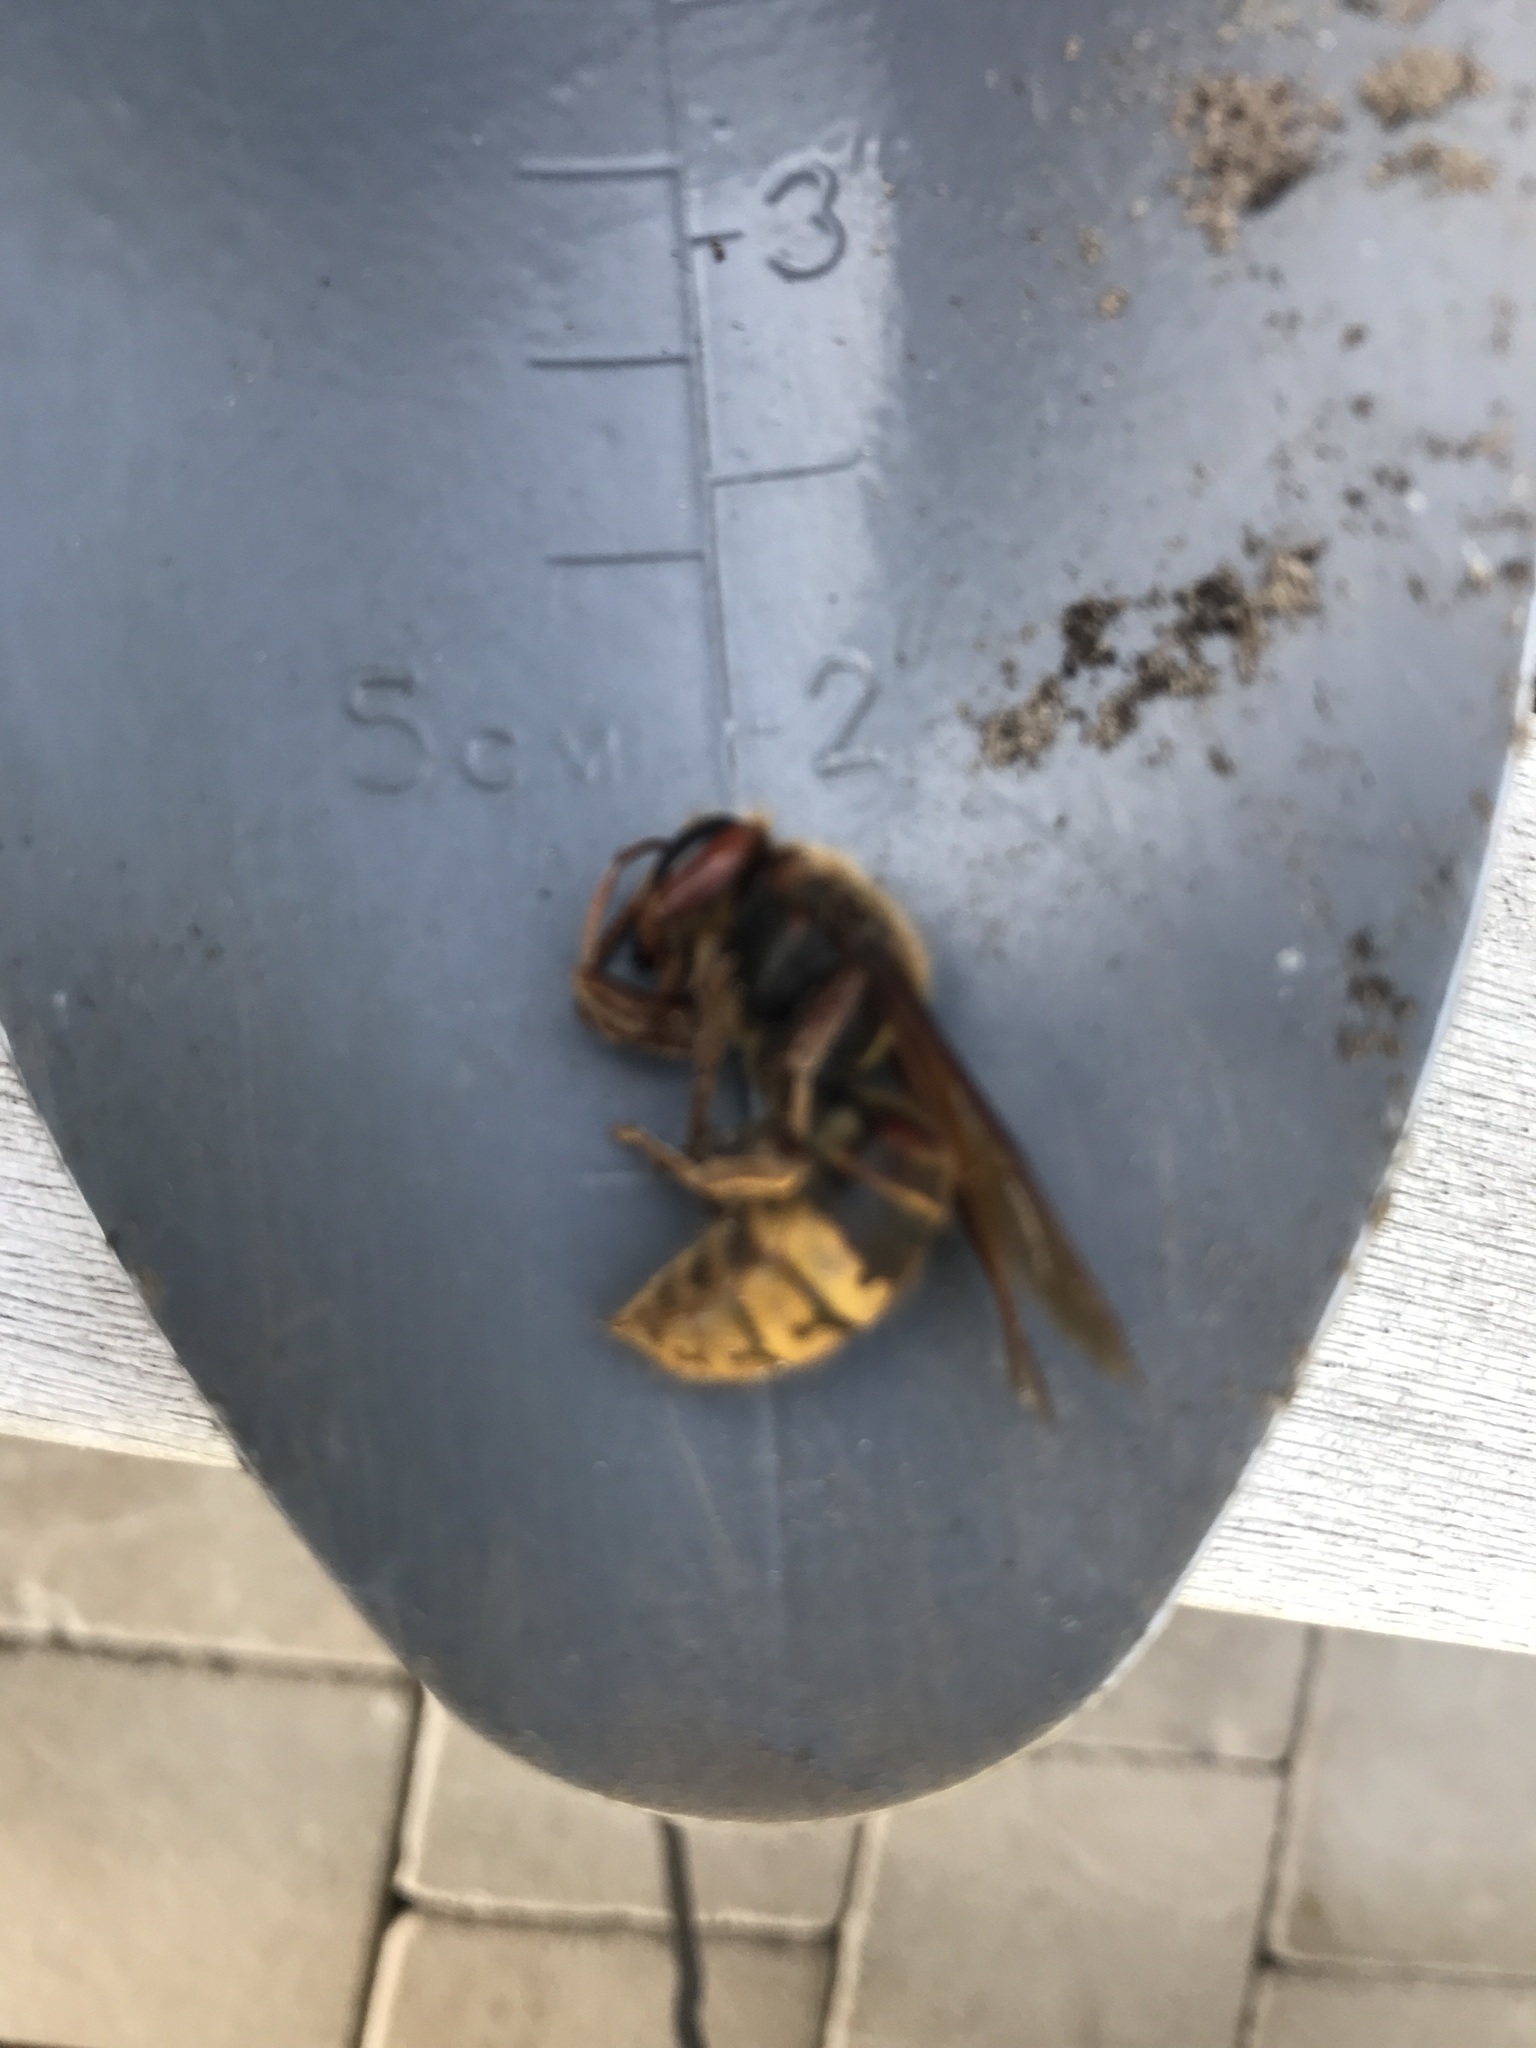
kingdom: Animalia
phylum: Arthropoda
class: Insecta
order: Hymenoptera
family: Vespidae
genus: Vespa
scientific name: Vespa crabro
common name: Hornet
